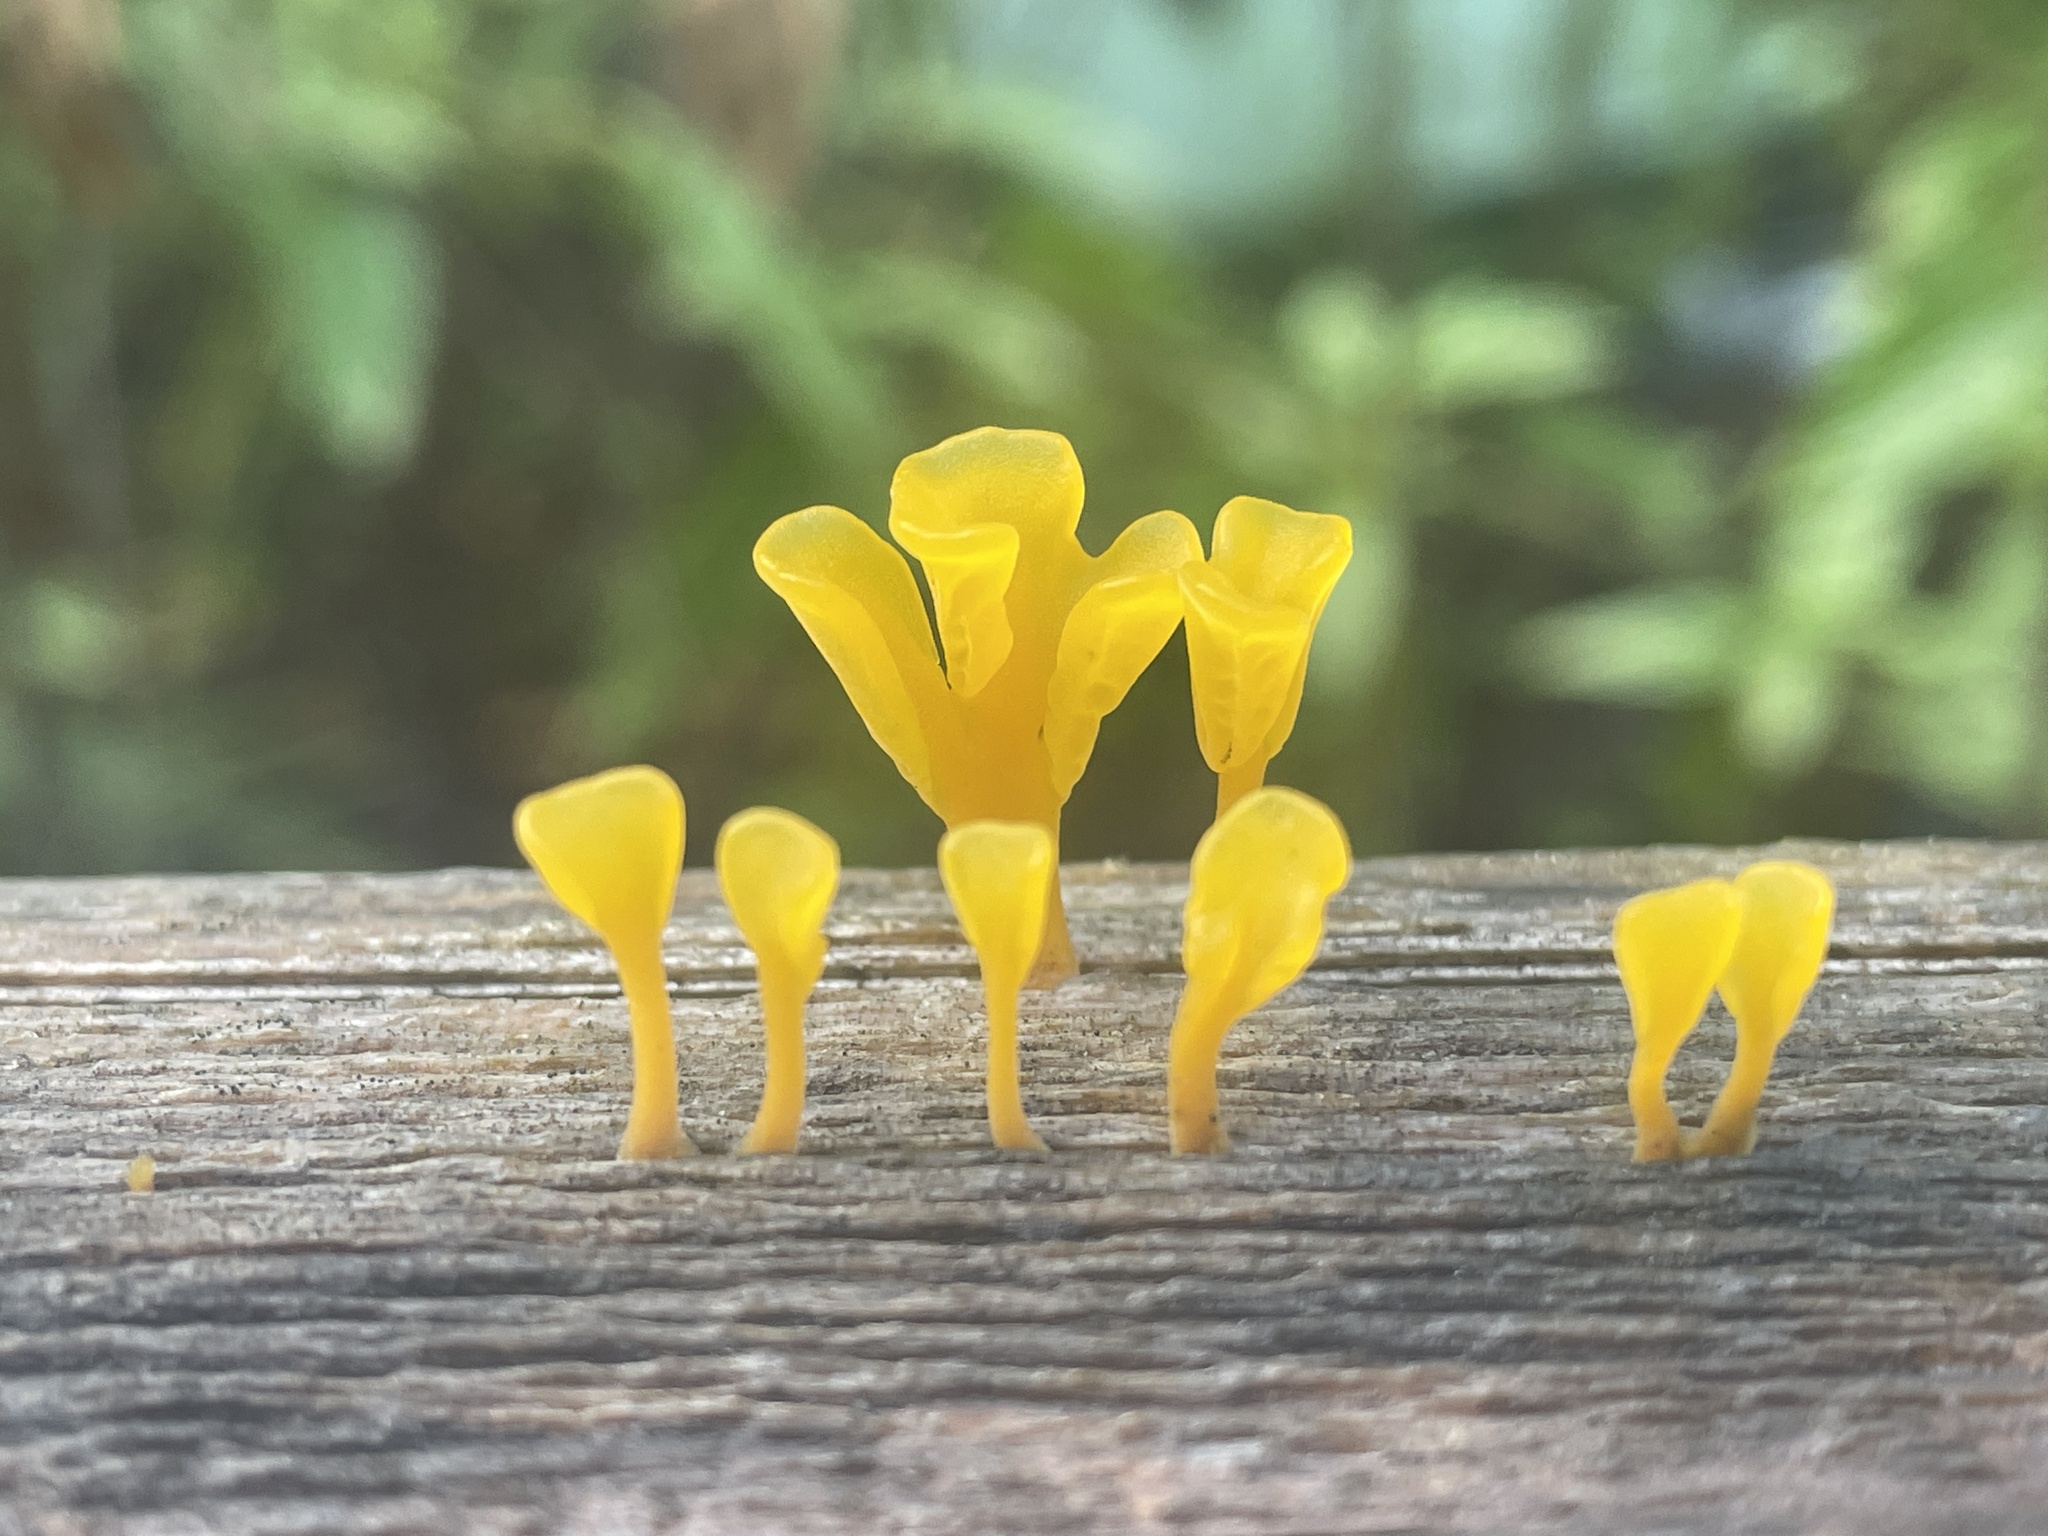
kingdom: Fungi
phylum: Basidiomycota
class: Dacrymycetes
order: Dacrymycetales
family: Dacrymycetaceae
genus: Dacrymyces
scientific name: Dacrymyces spathularius
